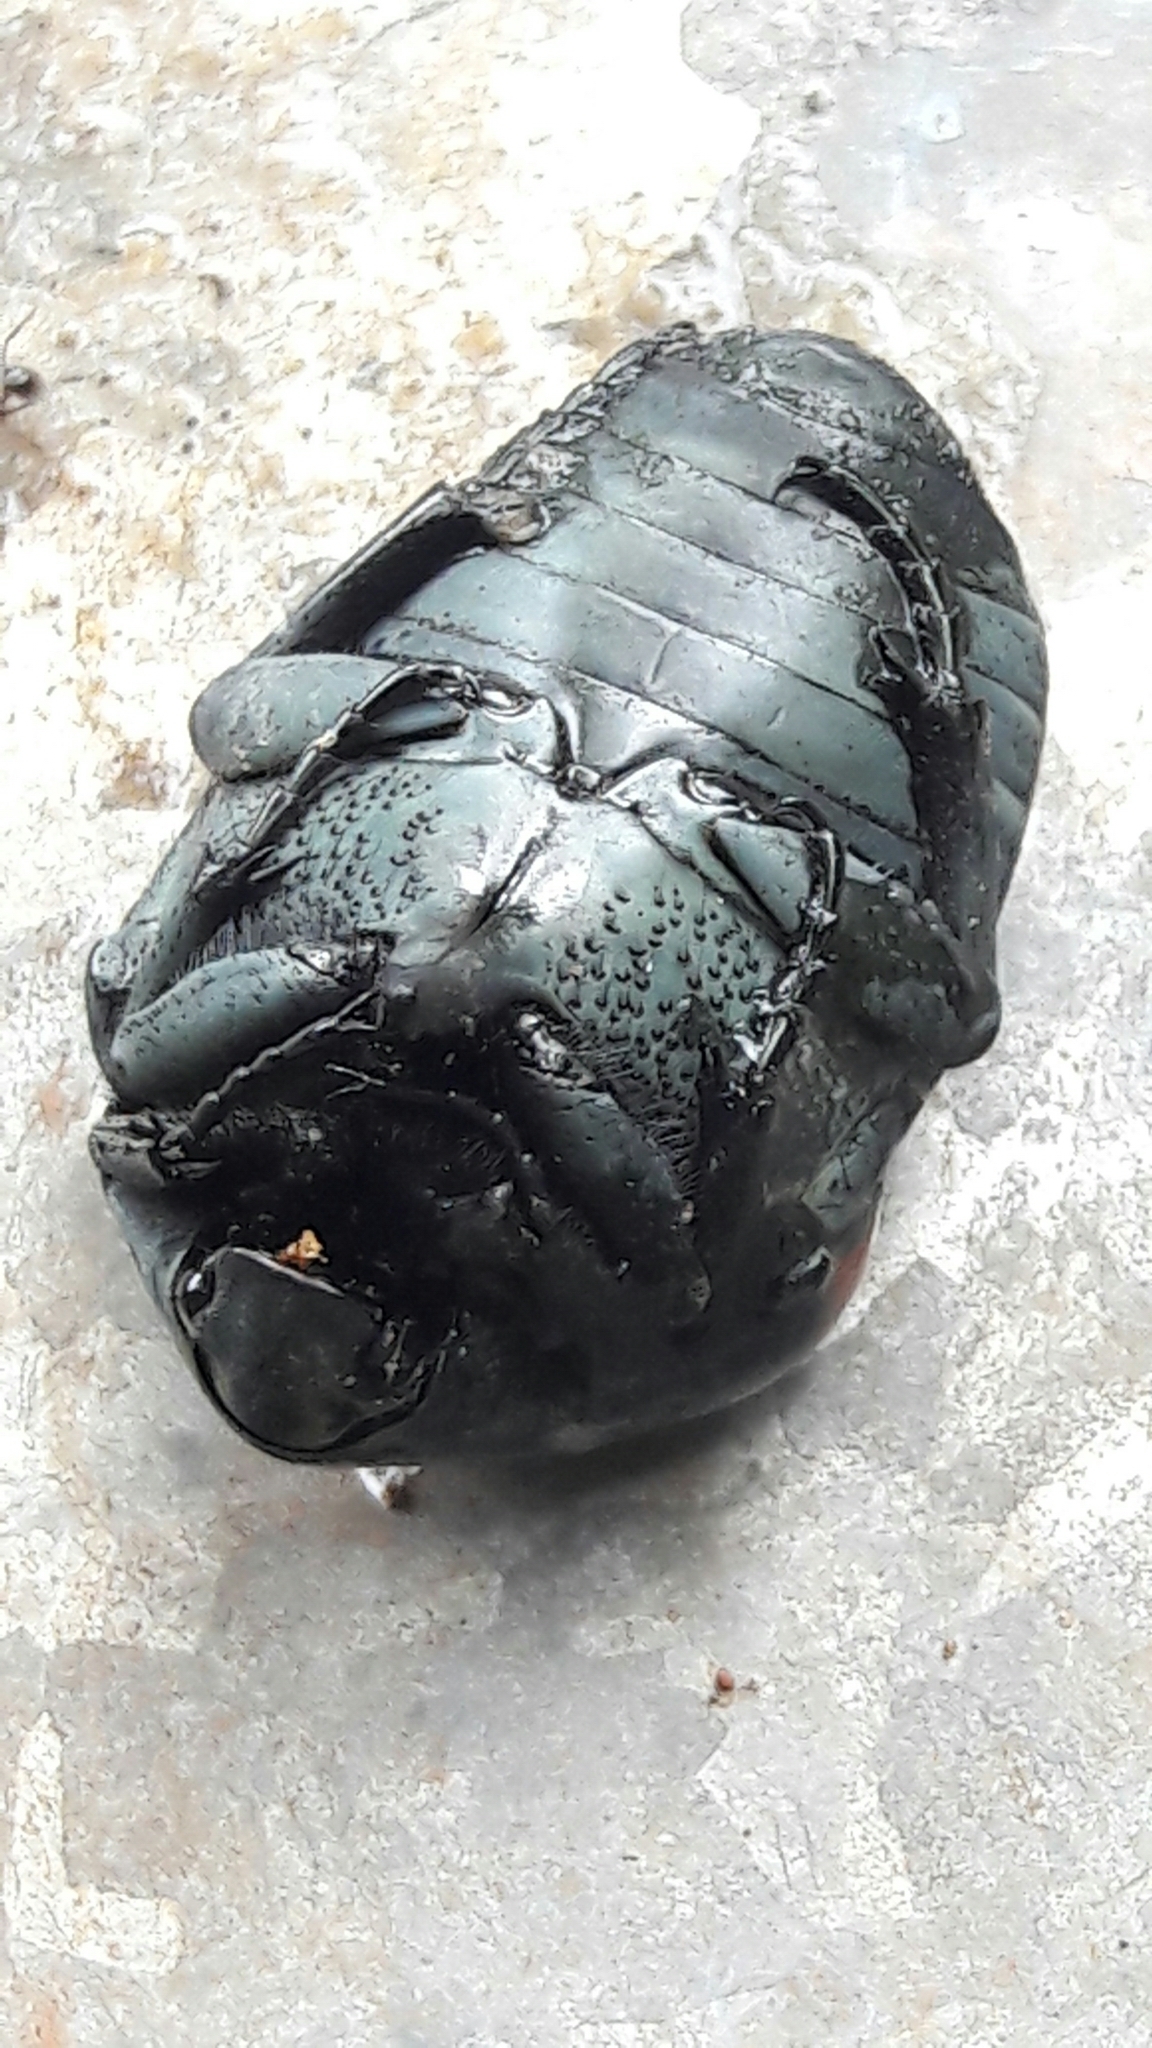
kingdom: Animalia
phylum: Arthropoda
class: Insecta
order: Coleoptera
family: Scarabaeidae
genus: Gymnetis
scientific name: Gymnetis rufilatris
